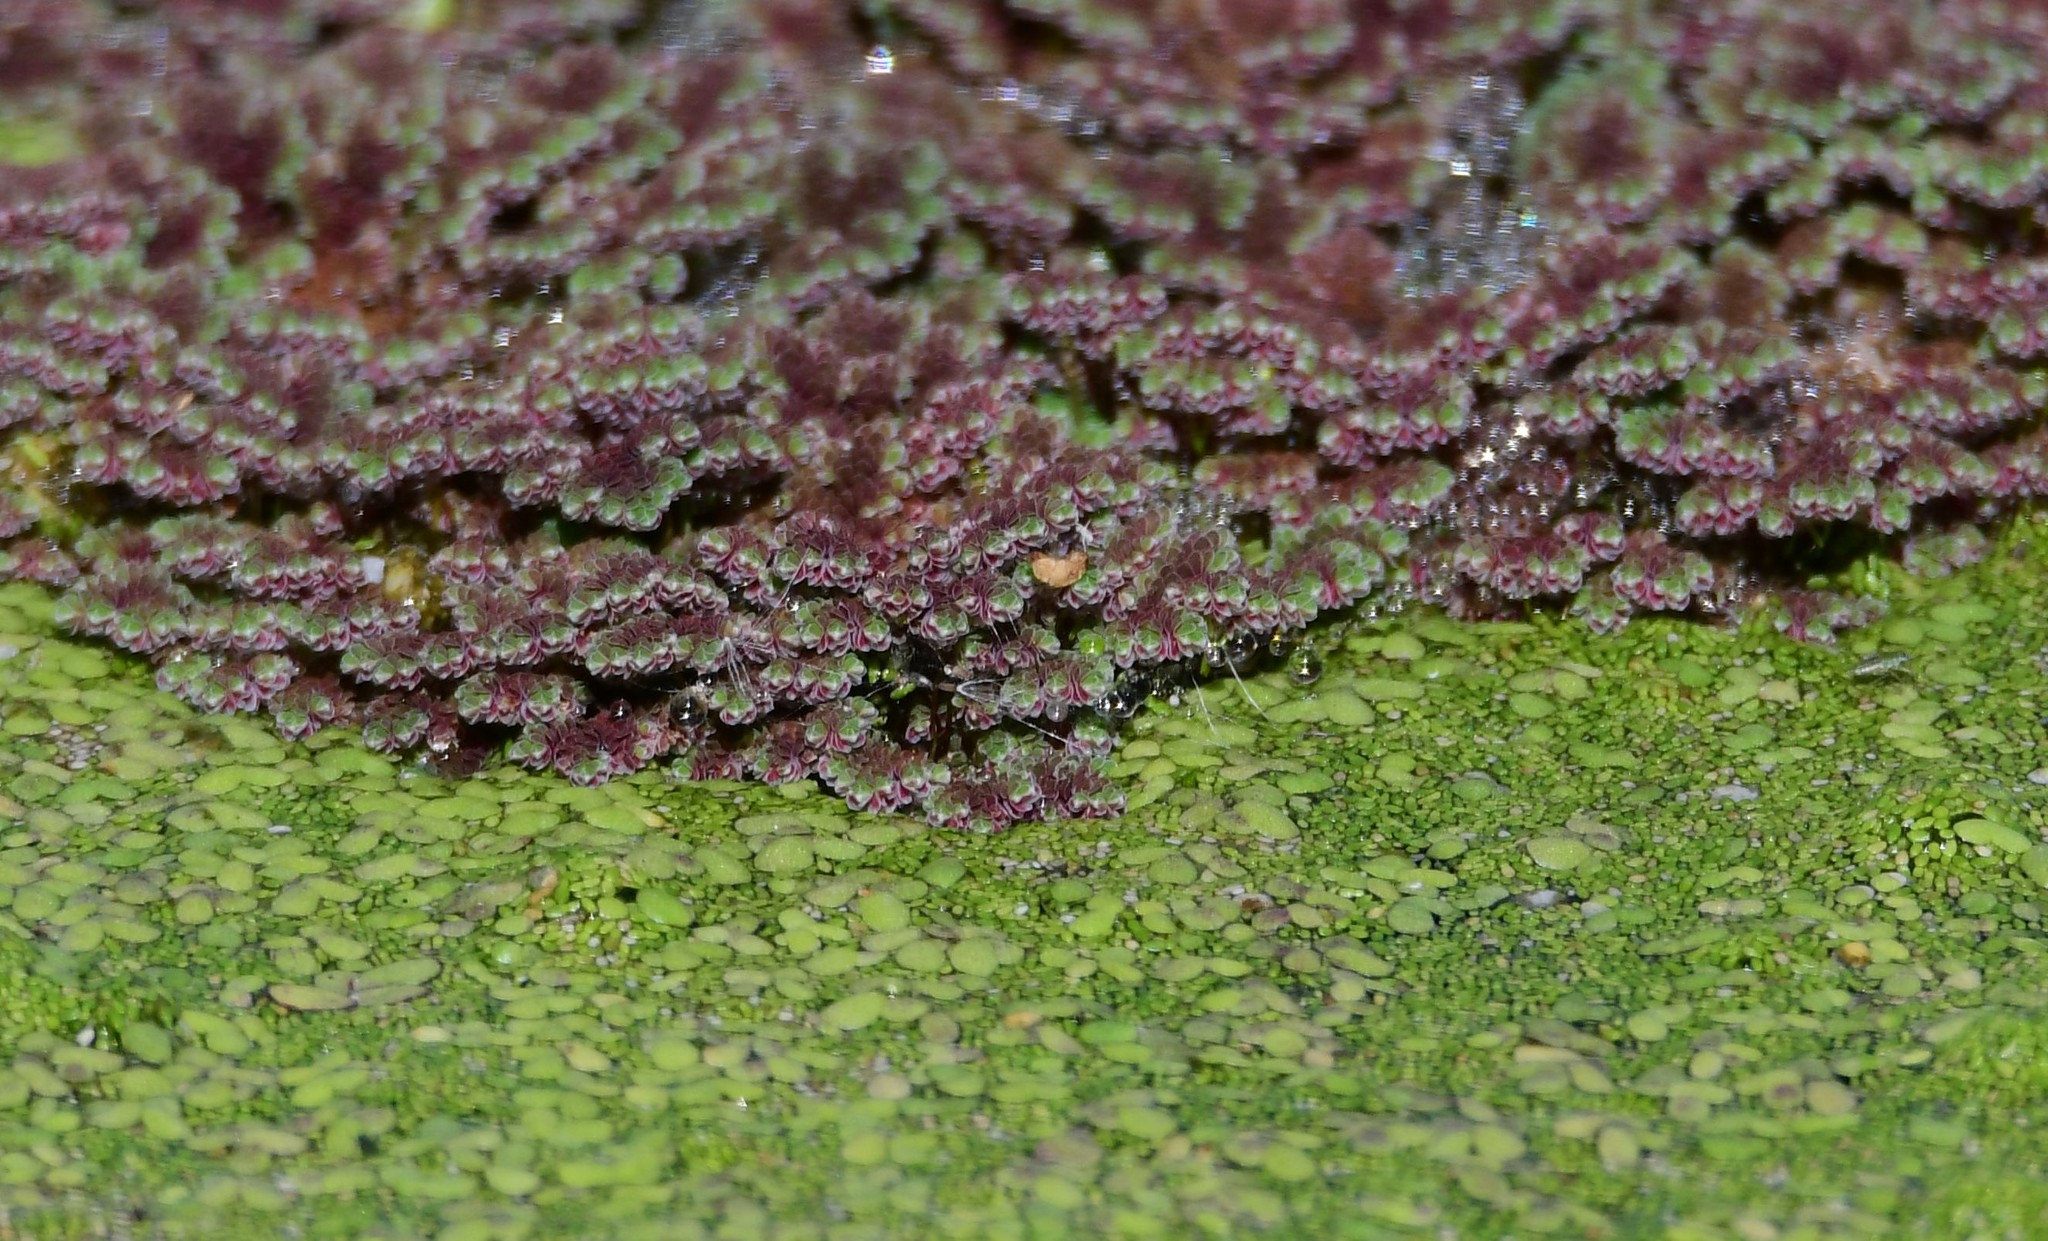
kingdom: Plantae
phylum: Tracheophyta
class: Polypodiopsida
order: Salviniales
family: Salviniaceae
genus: Azolla
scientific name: Azolla cristata
